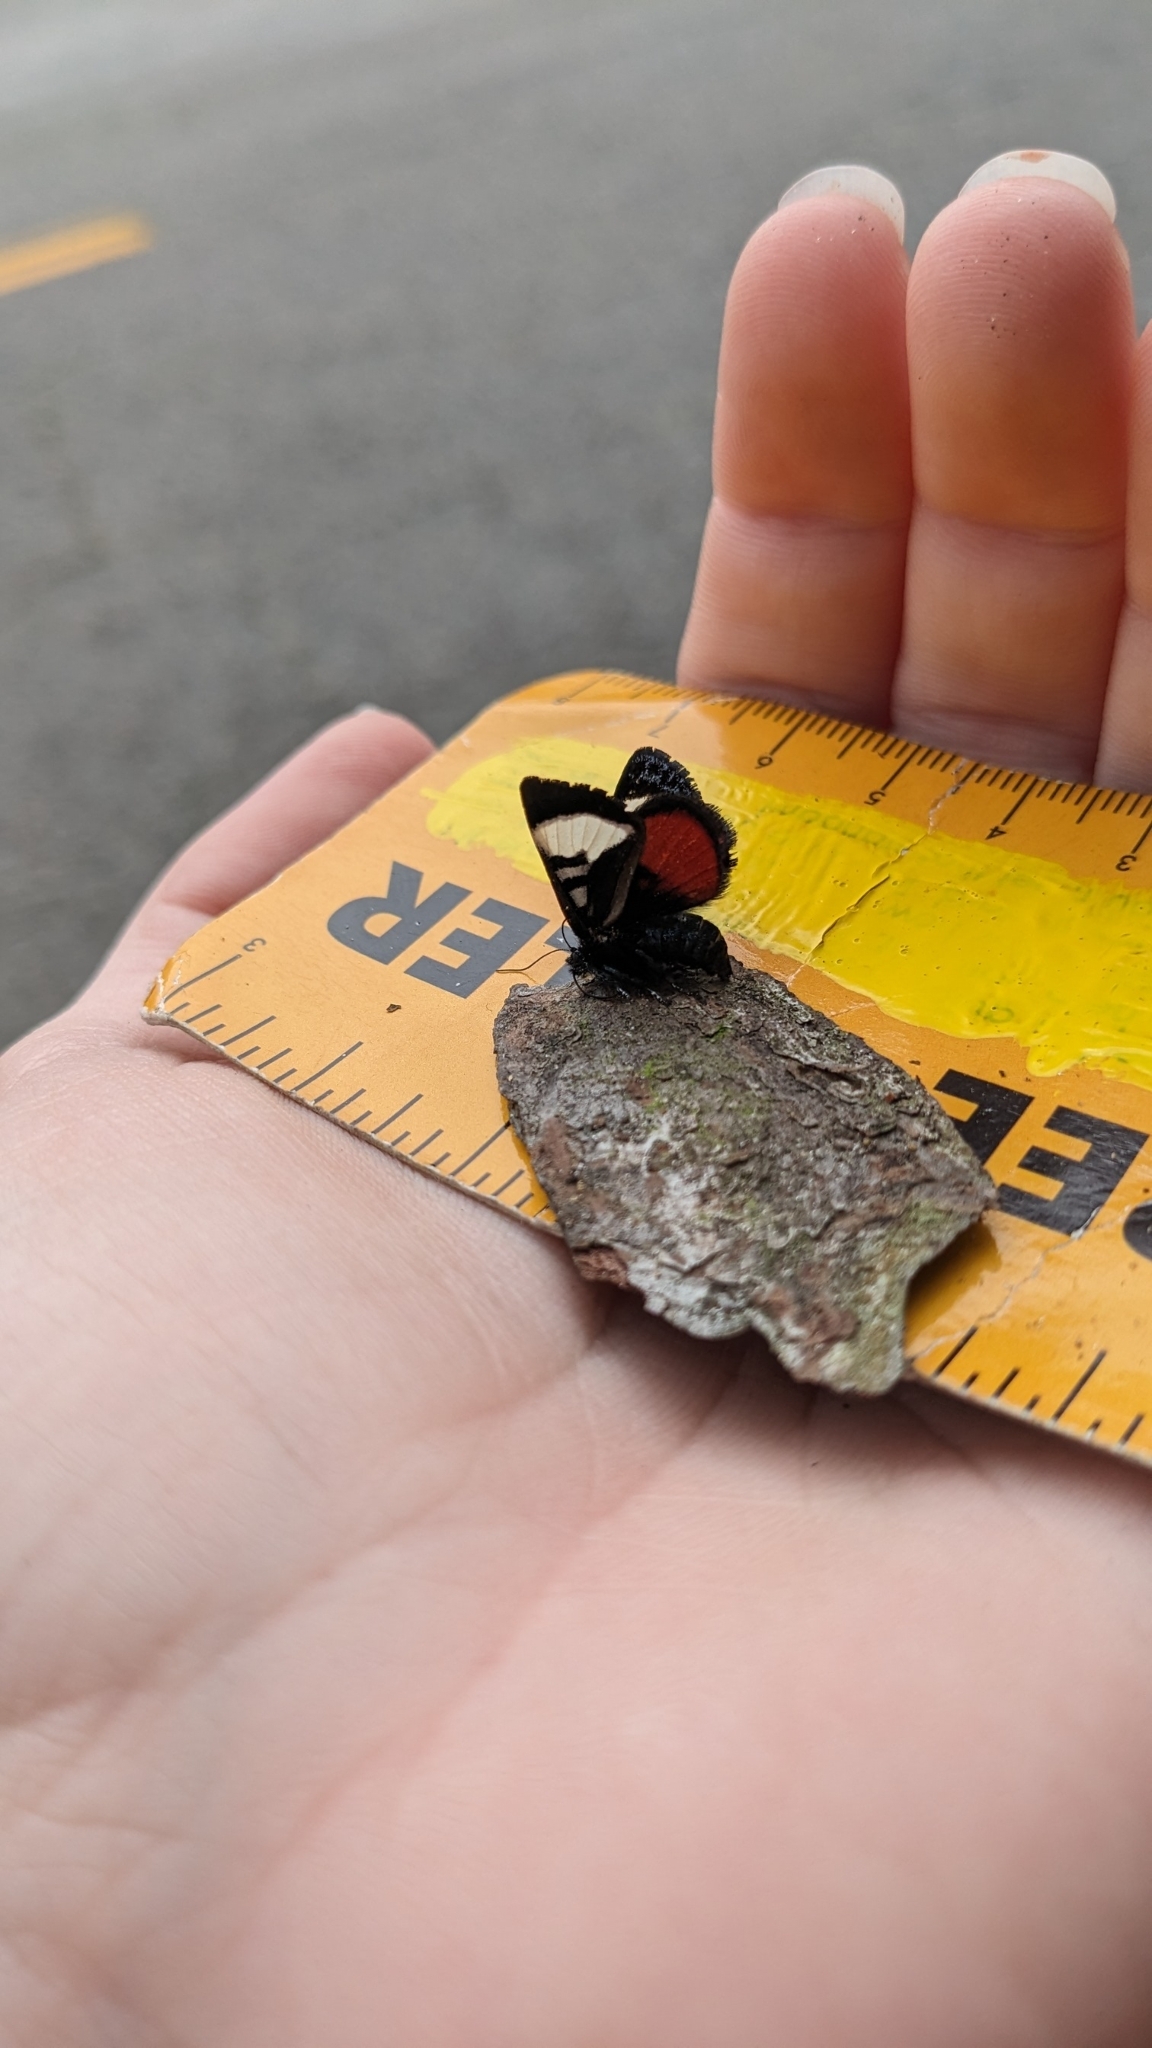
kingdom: Animalia
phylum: Arthropoda
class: Insecta
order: Lepidoptera
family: Noctuidae
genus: Psychomorpha
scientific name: Psychomorpha epimenis
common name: Grapevine epimenis moth
